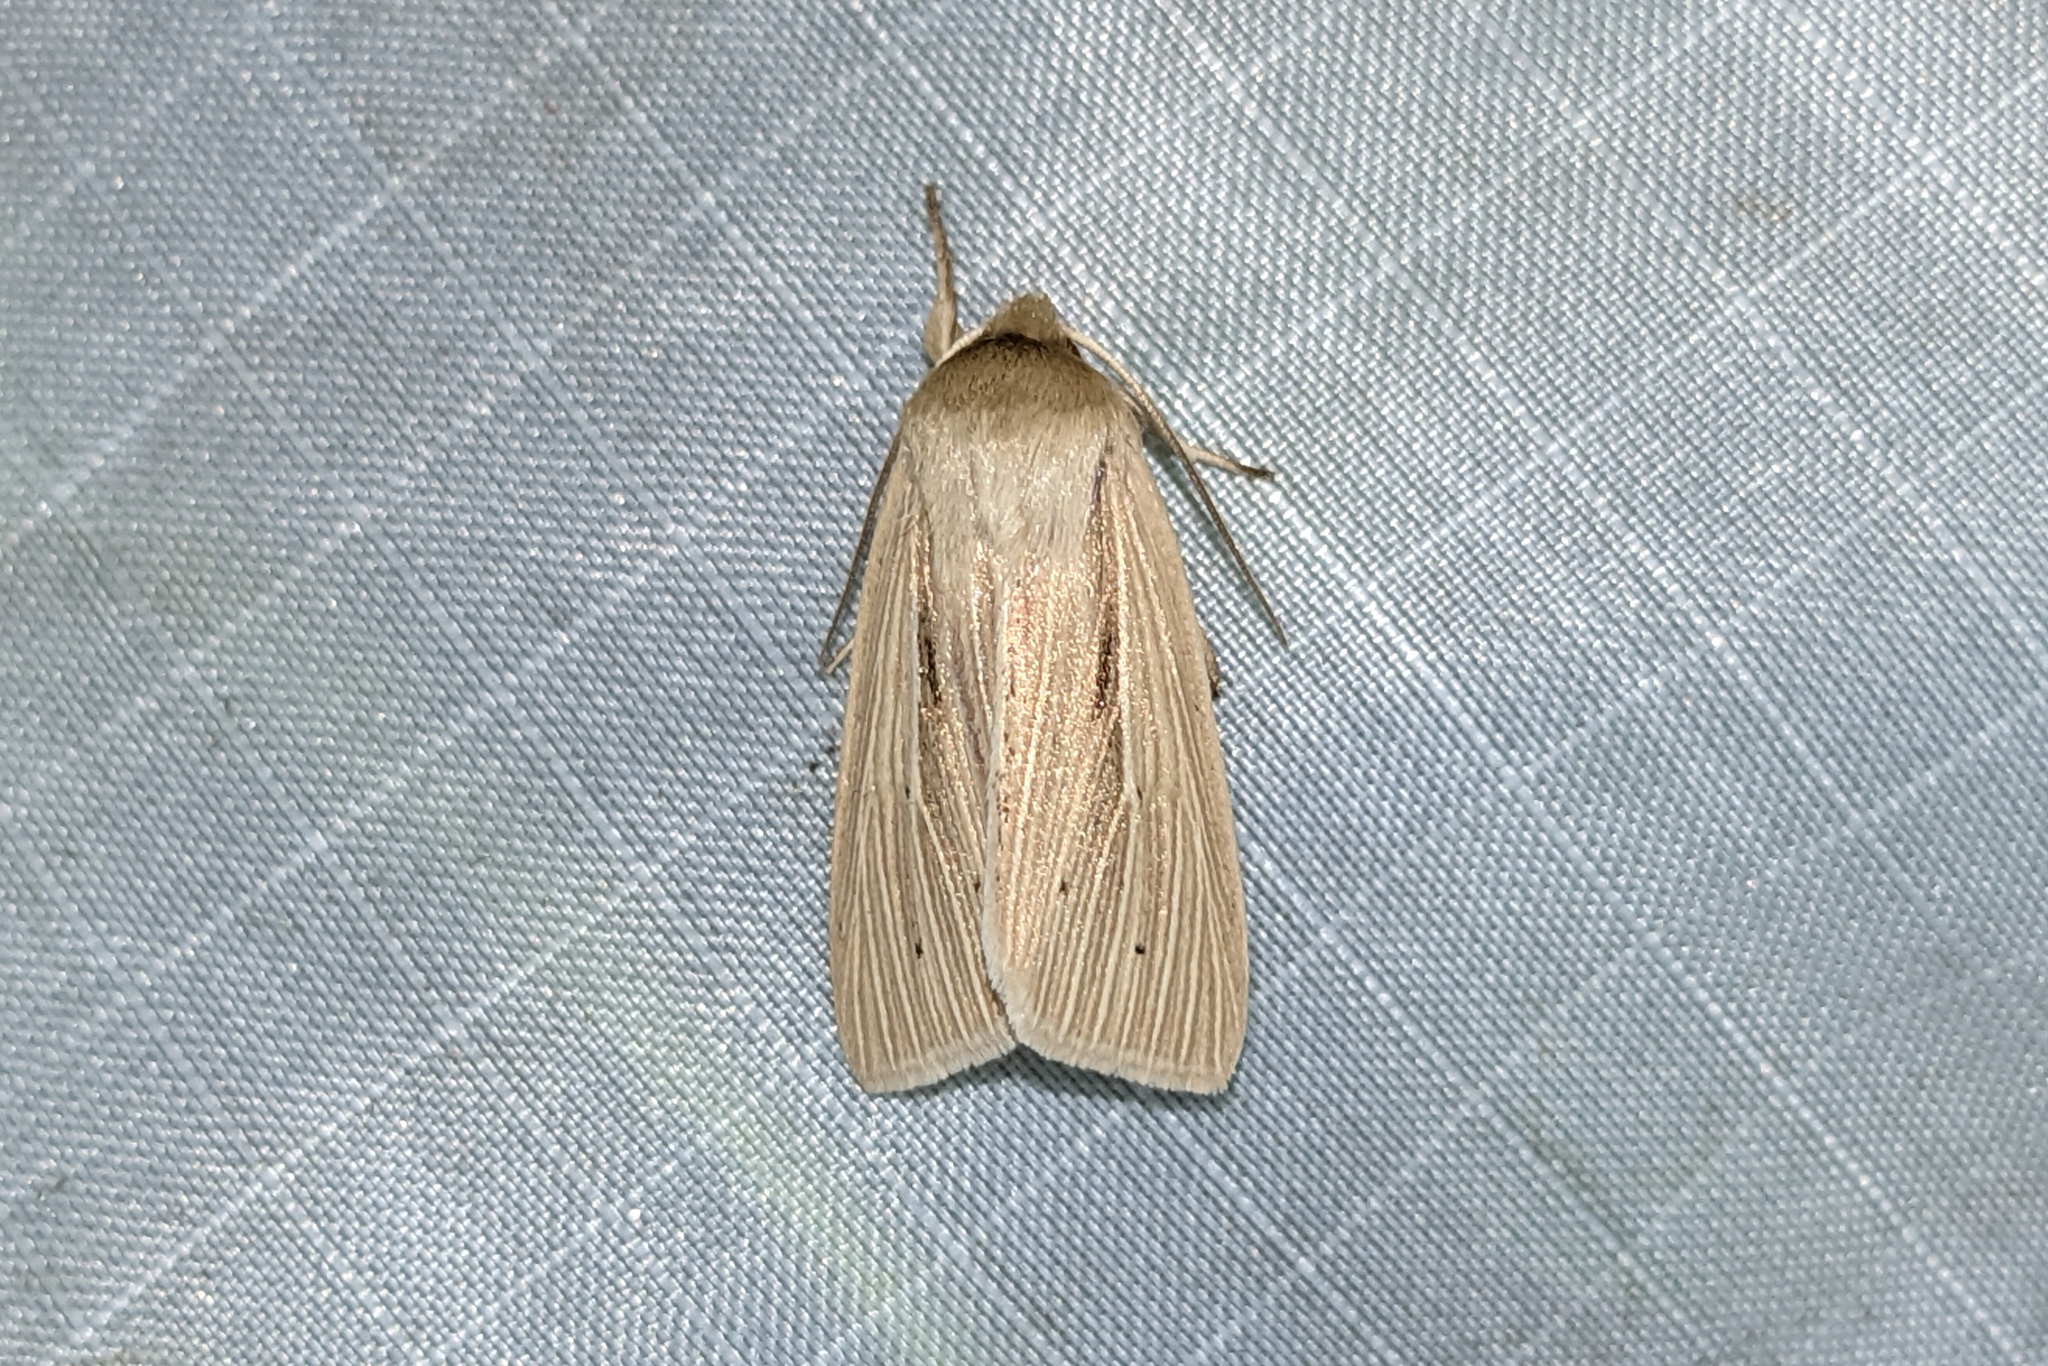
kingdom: Animalia
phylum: Arthropoda
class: Insecta
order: Lepidoptera
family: Noctuidae
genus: Mythimna
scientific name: Mythimna oxygala
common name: Lesser wainscot
